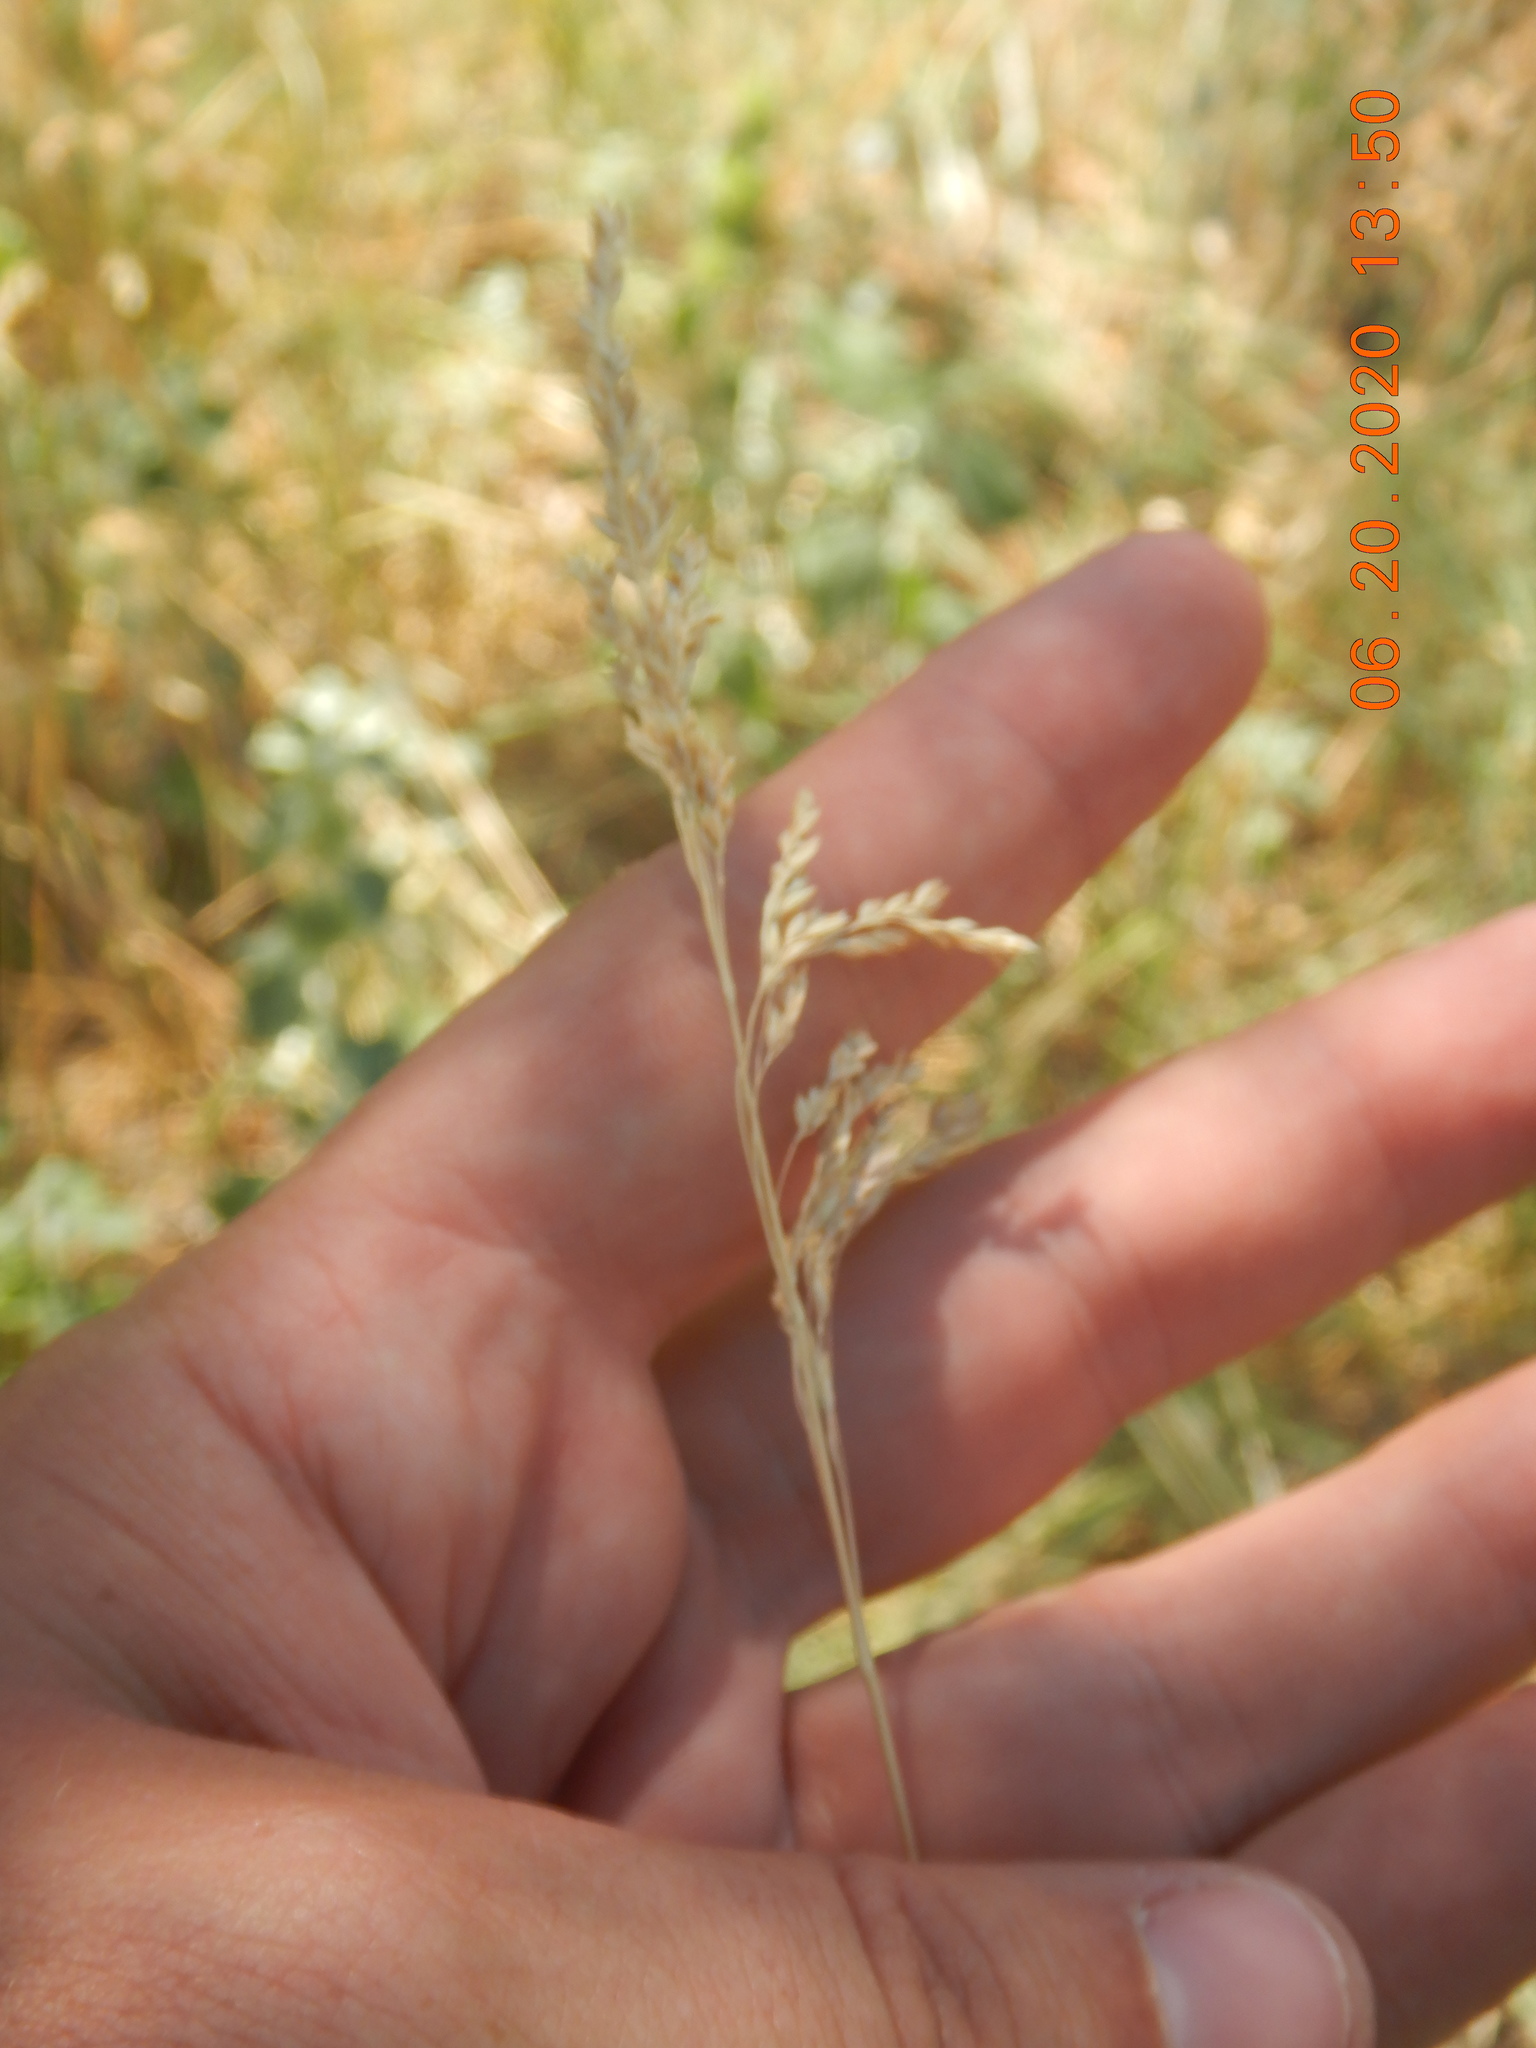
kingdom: Plantae
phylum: Tracheophyta
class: Liliopsida
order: Poales
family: Poaceae
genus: Poa
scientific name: Poa pratensis
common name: Kentucky bluegrass
